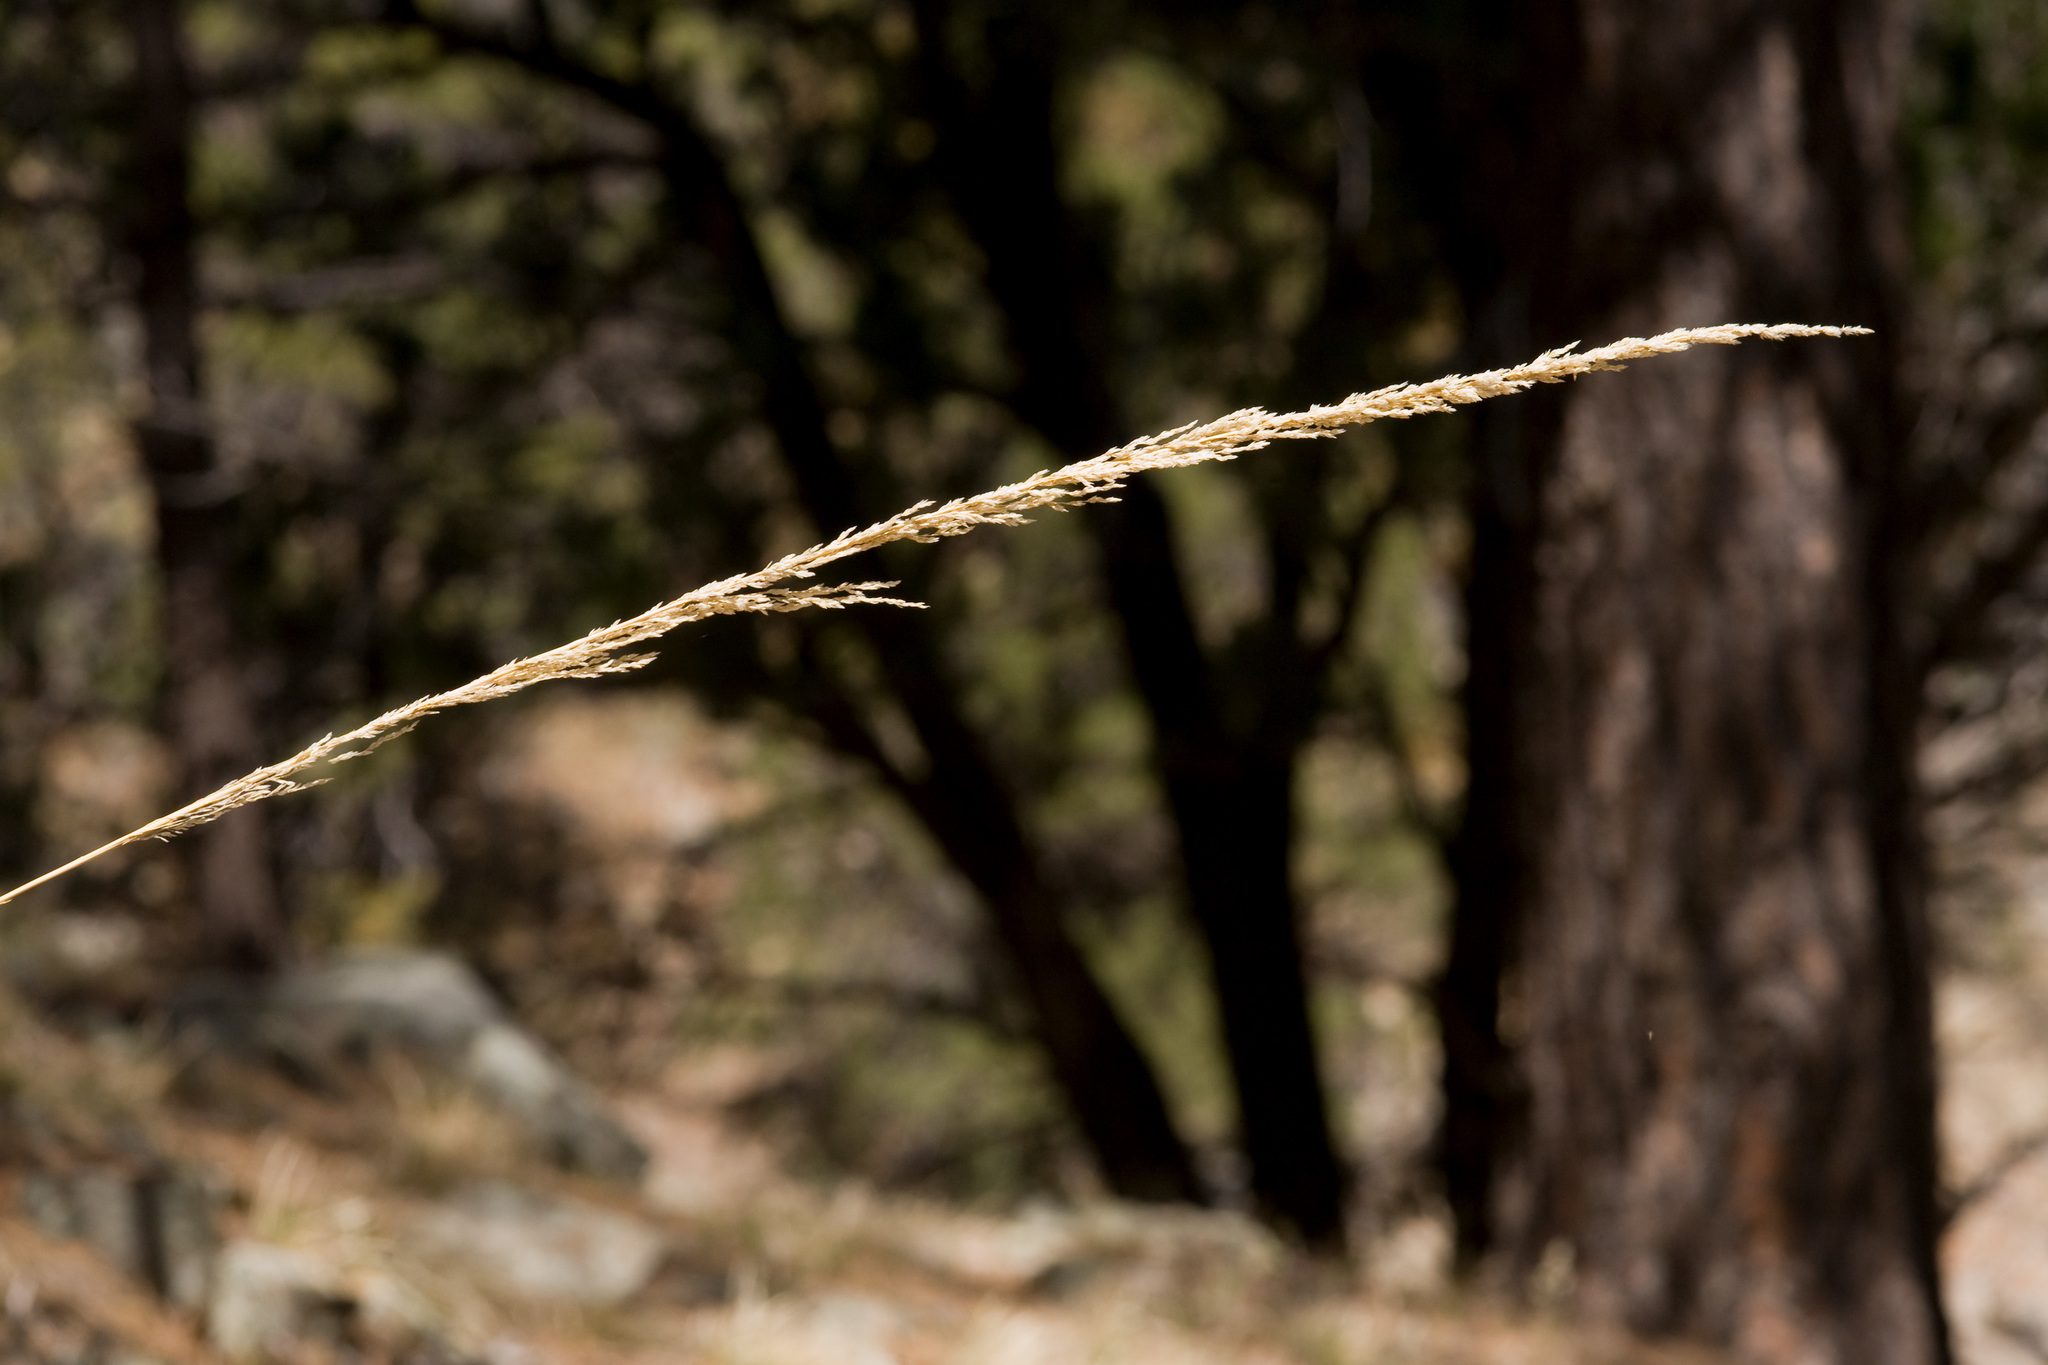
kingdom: Plantae
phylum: Tracheophyta
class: Liliopsida
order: Poales
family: Poaceae
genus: Muhlenbergia
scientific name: Muhlenbergia longiligula
